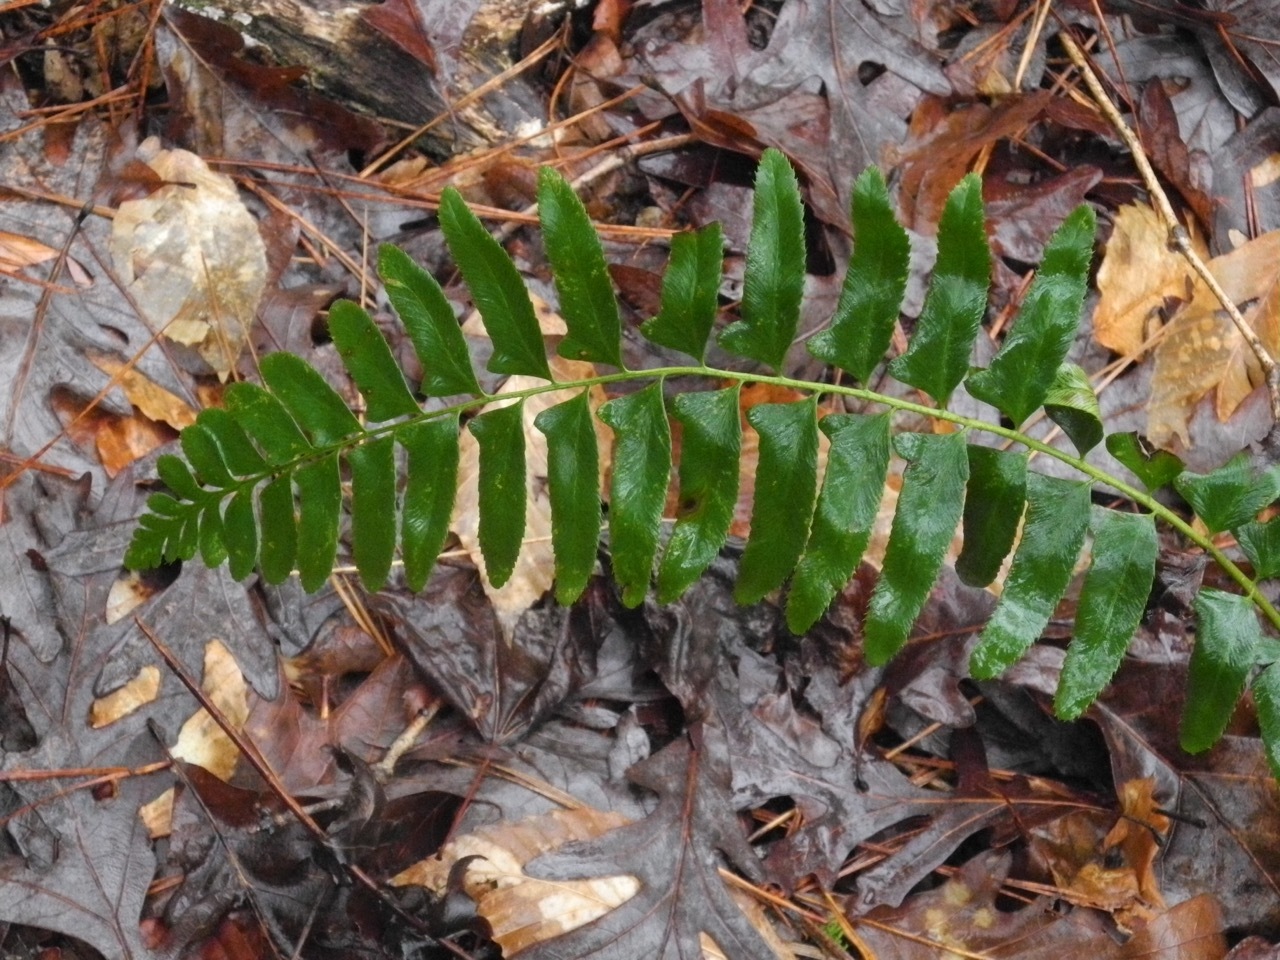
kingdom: Plantae
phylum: Tracheophyta
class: Polypodiopsida
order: Polypodiales
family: Dryopteridaceae
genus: Polystichum
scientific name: Polystichum acrostichoides
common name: Christmas fern
